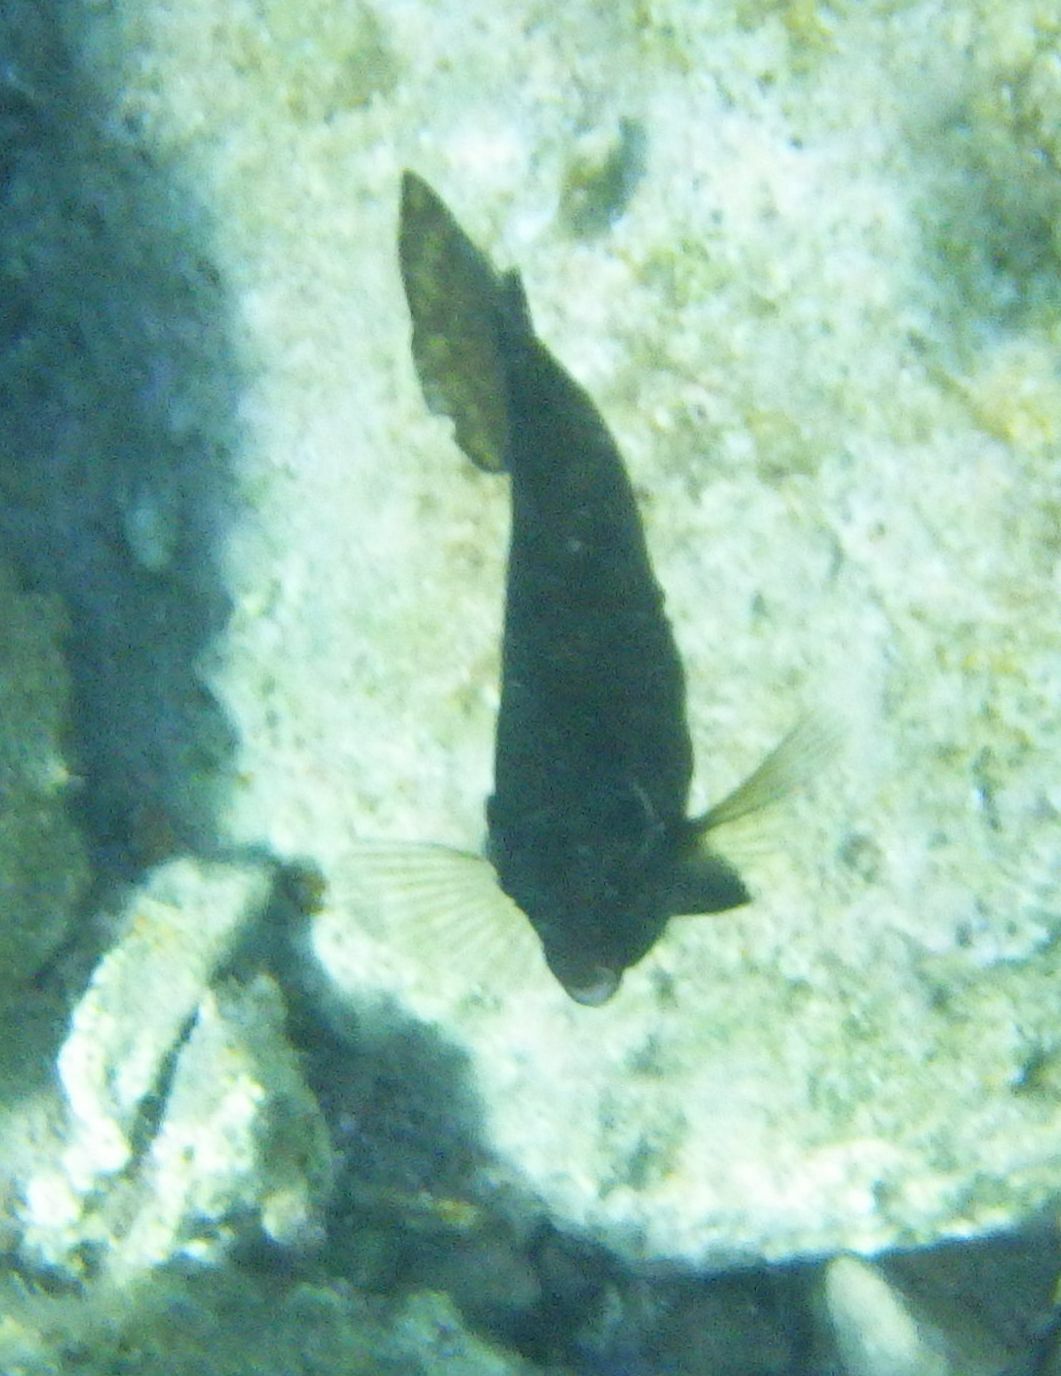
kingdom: Animalia
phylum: Chordata
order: Perciformes
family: Siganidae
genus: Siganus
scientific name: Siganus luridus
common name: Dusky spinefoot
